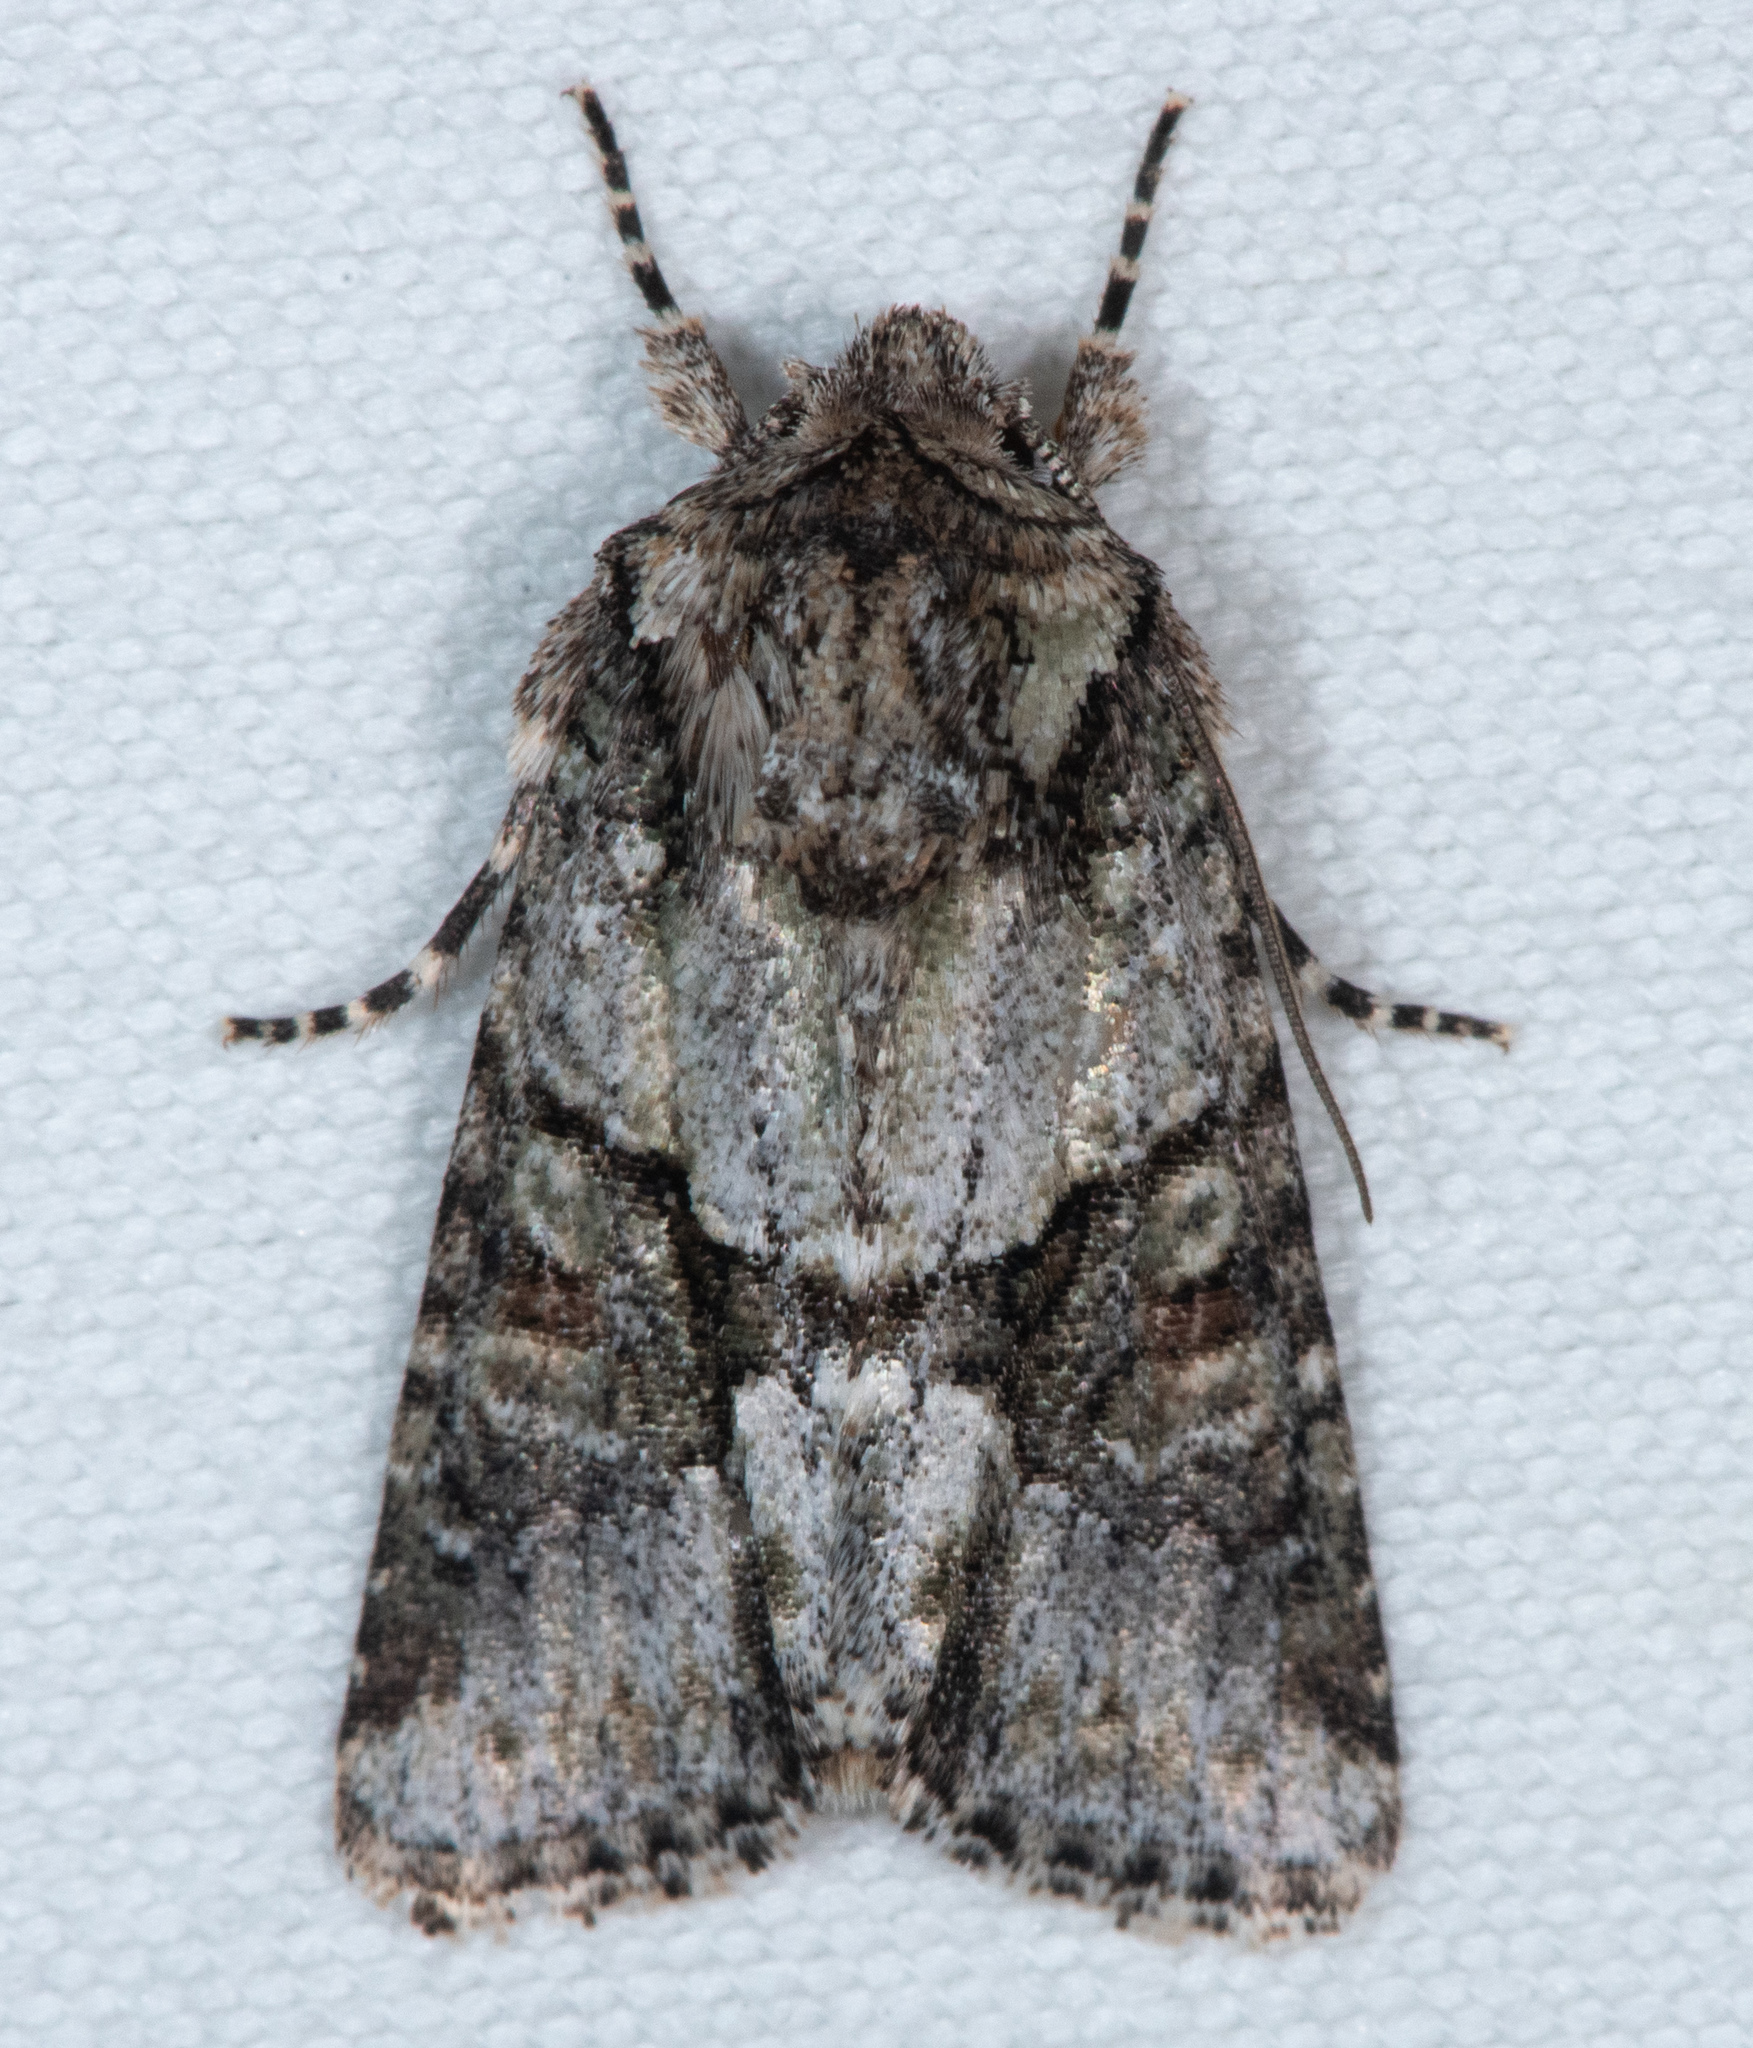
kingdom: Animalia
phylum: Arthropoda
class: Insecta
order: Lepidoptera
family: Noctuidae
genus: Lacinipolia
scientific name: Lacinipolia quadrilineata
